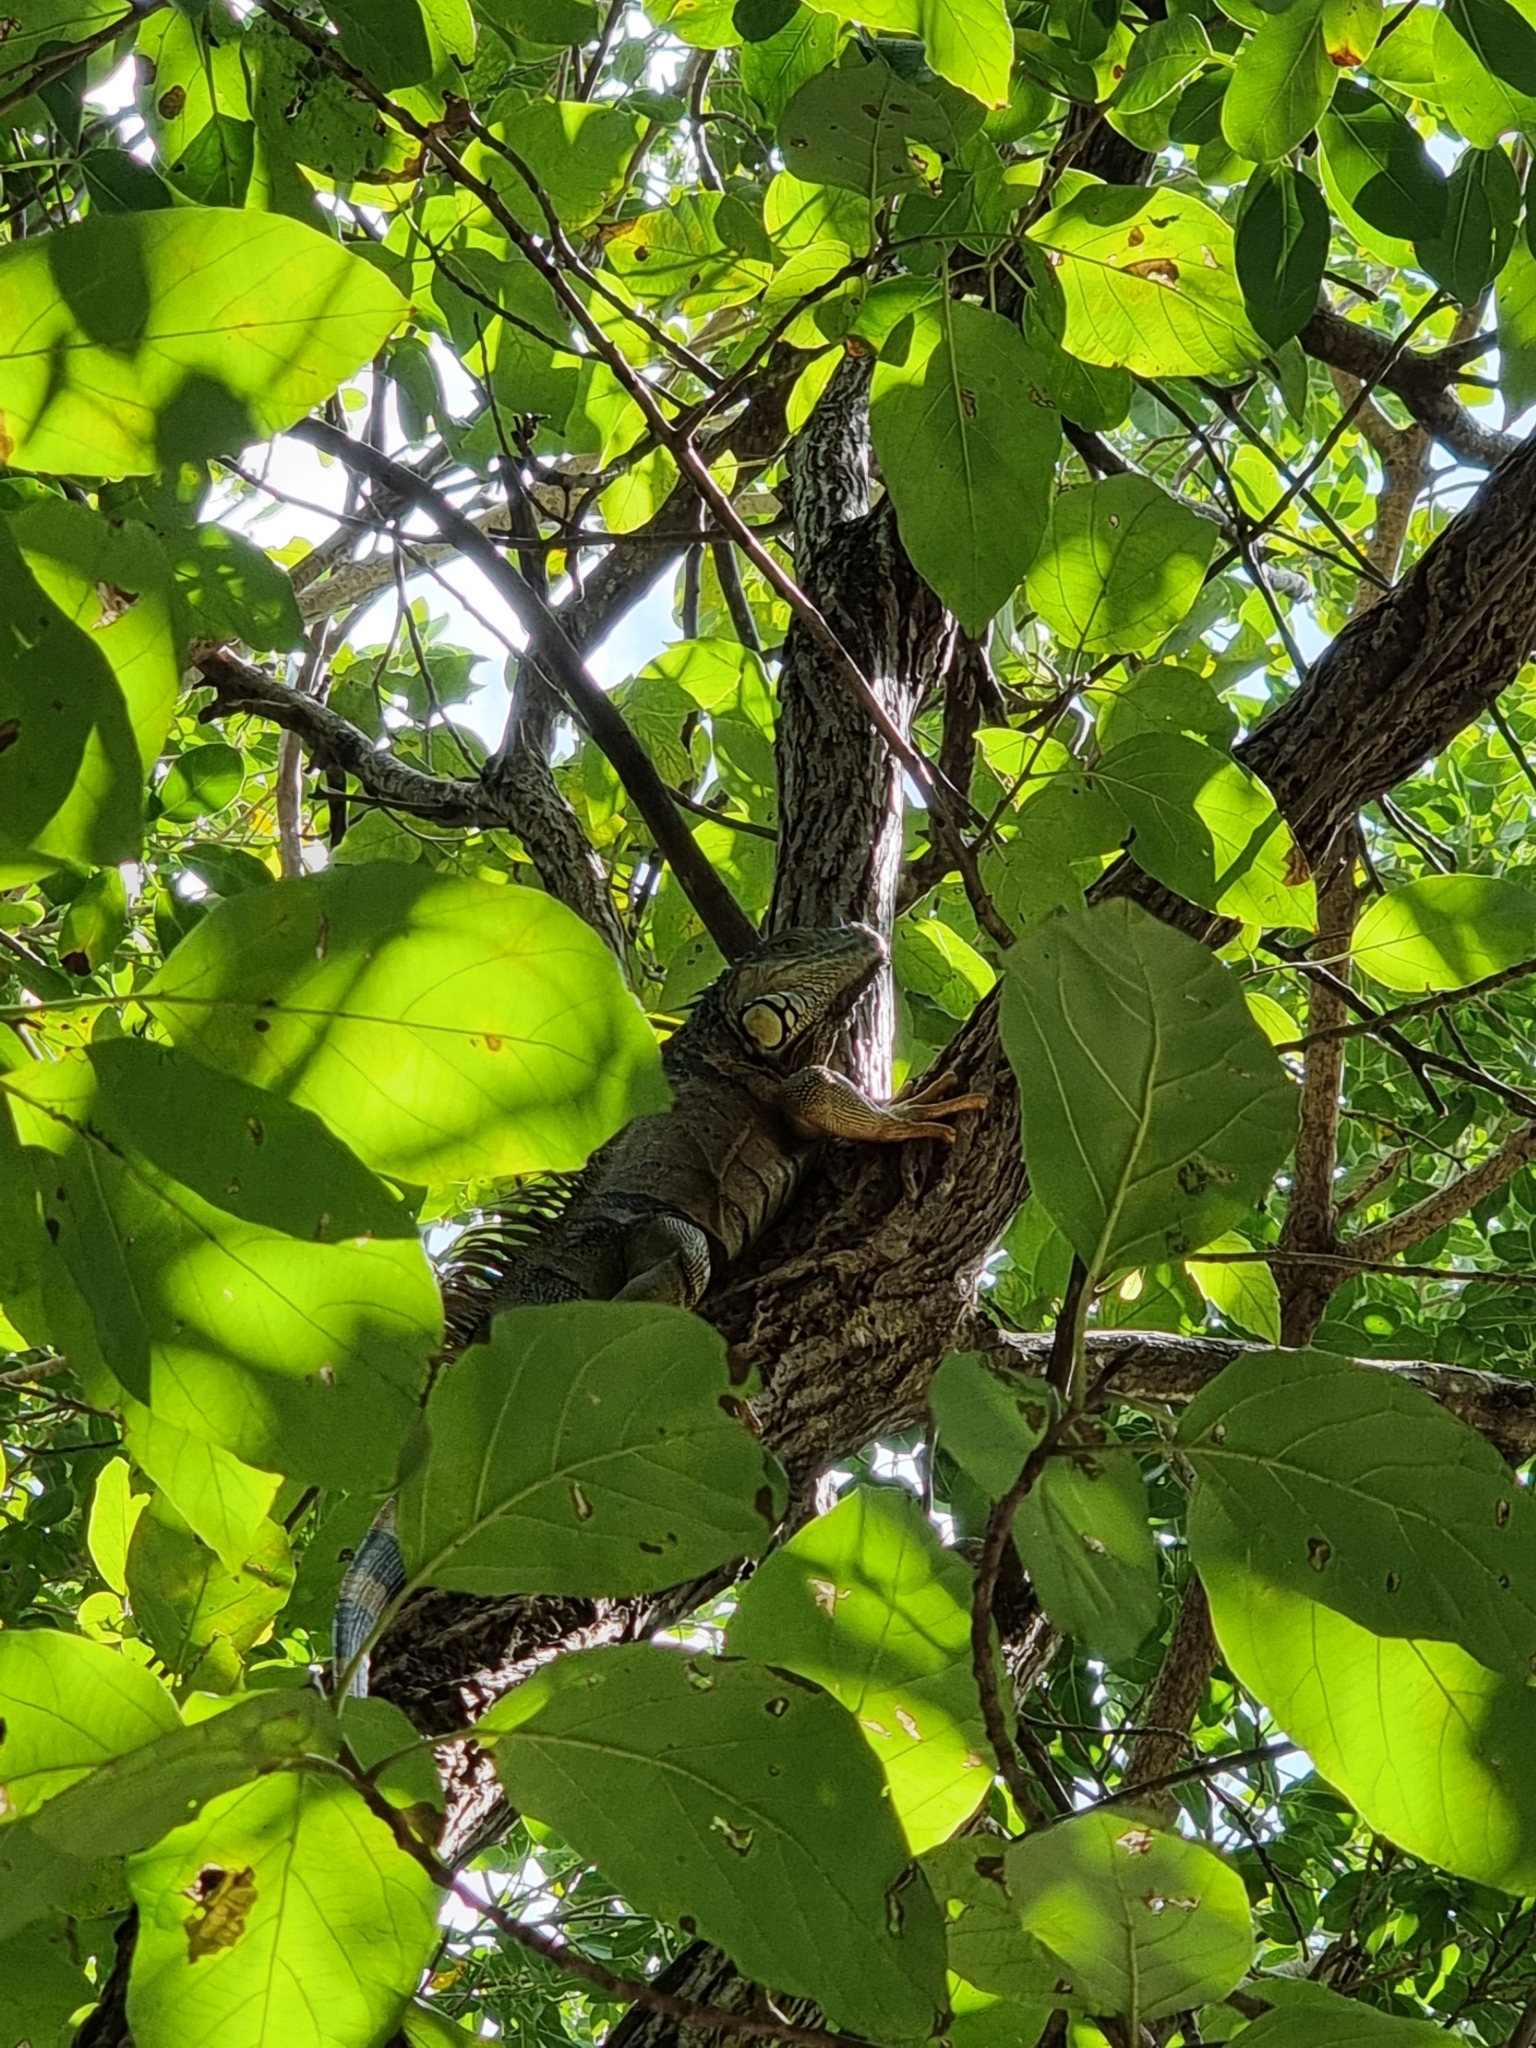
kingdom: Animalia
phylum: Chordata
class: Squamata
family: Iguanidae
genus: Iguana
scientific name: Iguana iguana
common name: Green iguana
